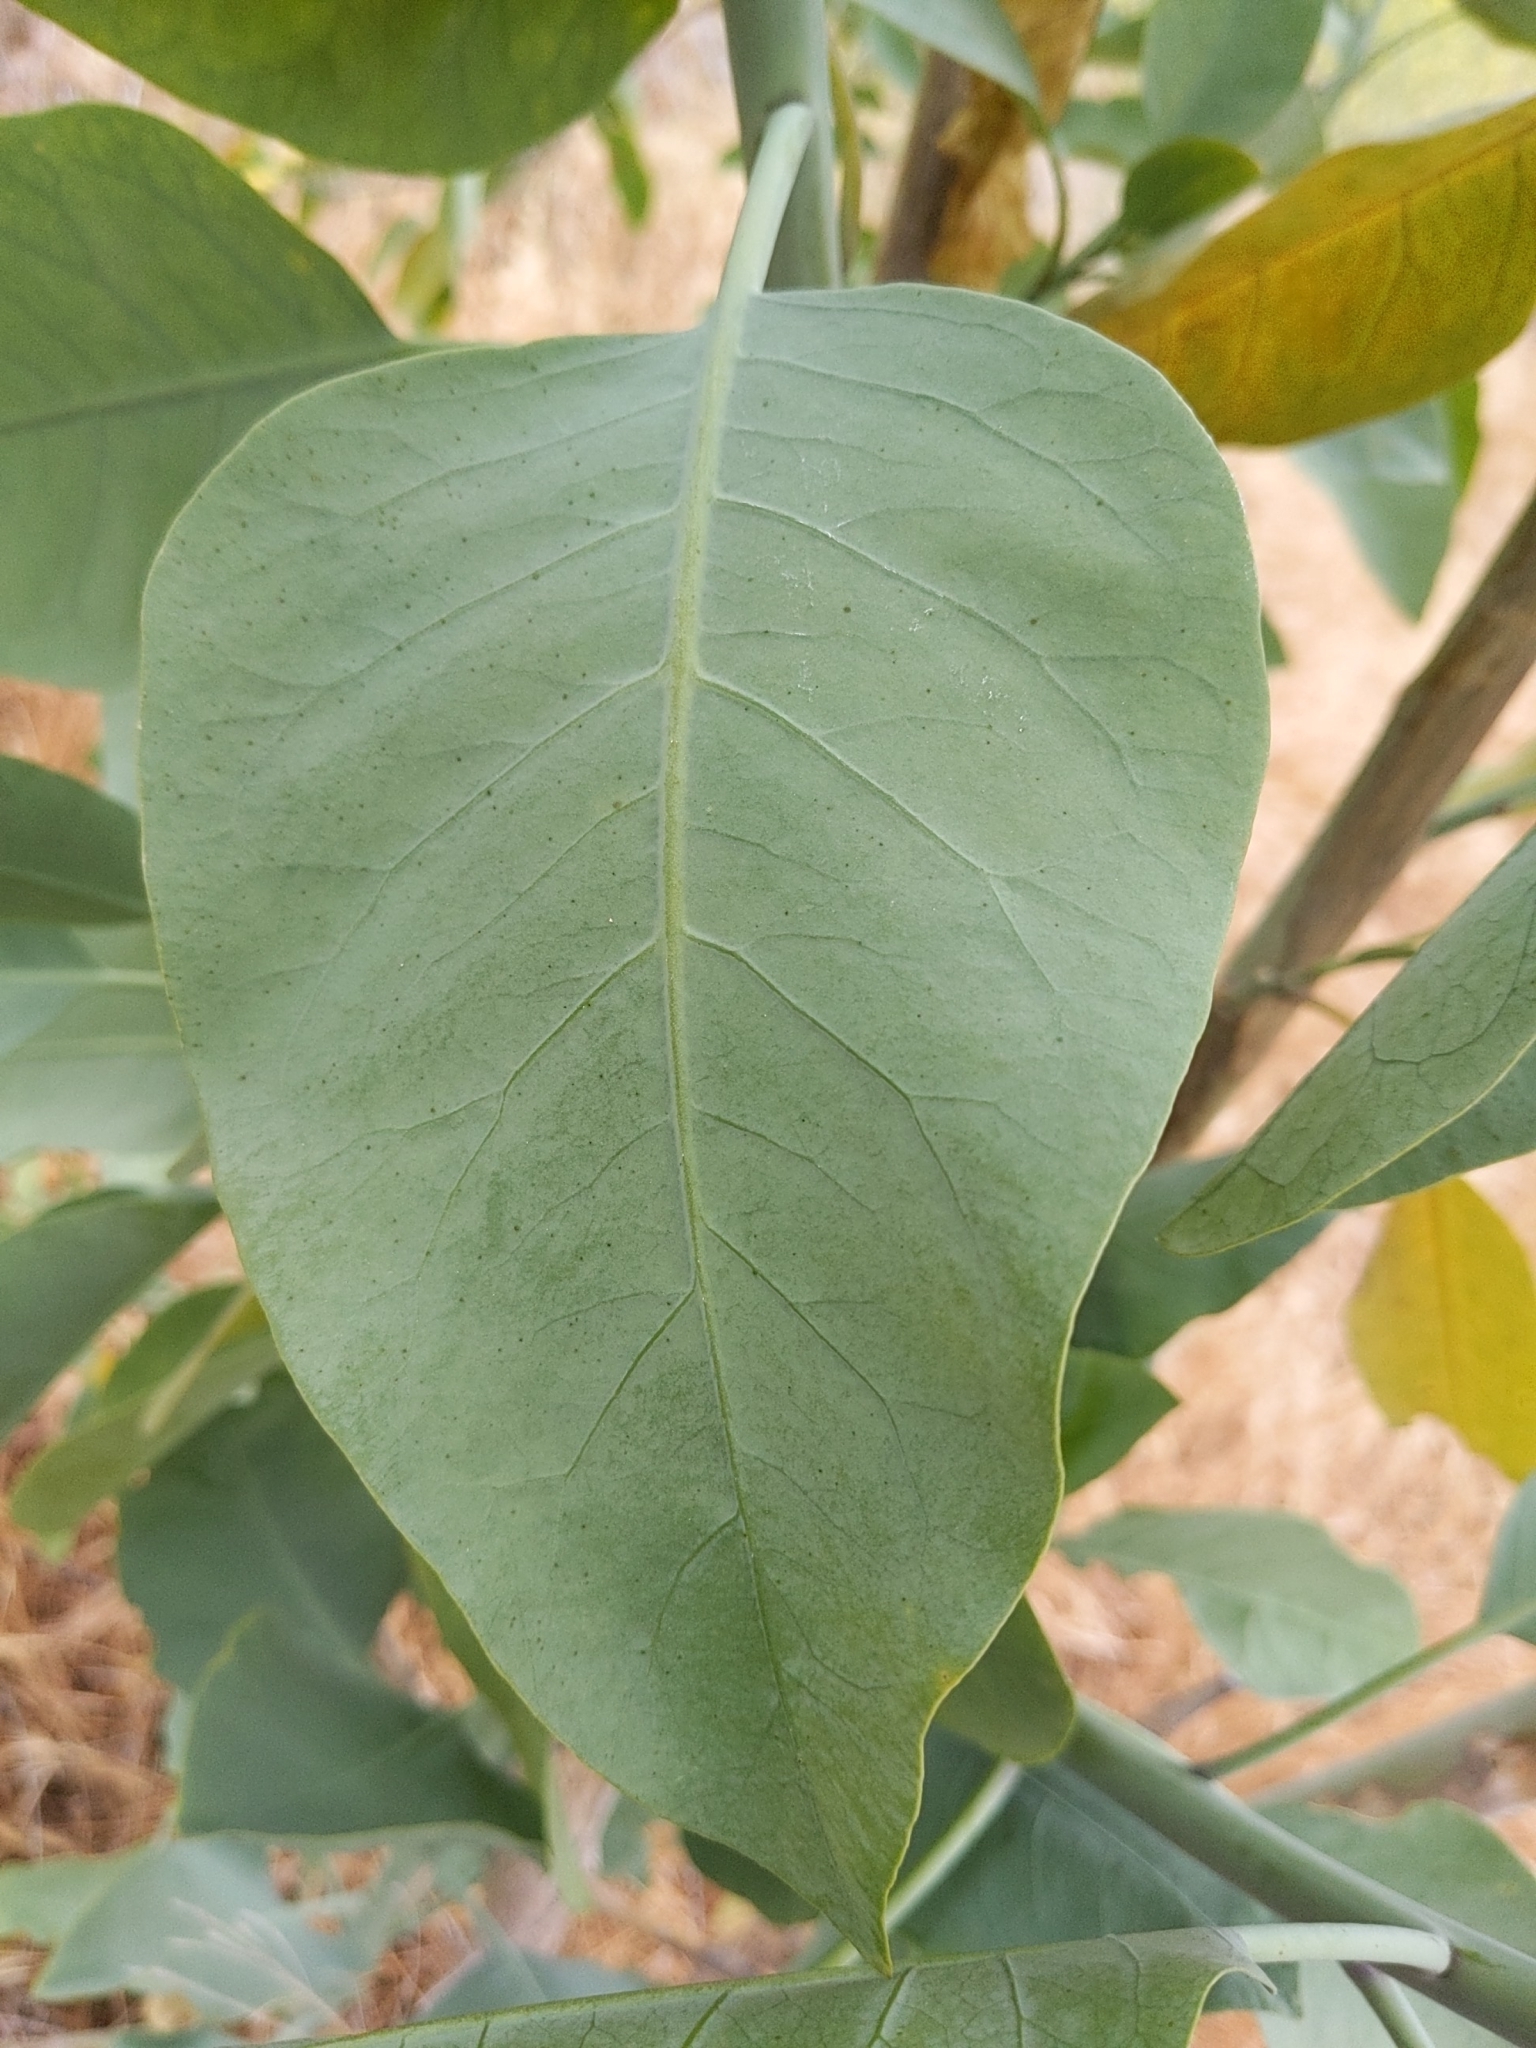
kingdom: Plantae
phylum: Tracheophyta
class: Magnoliopsida
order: Solanales
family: Solanaceae
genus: Nicotiana
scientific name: Nicotiana glauca
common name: Tree tobacco
